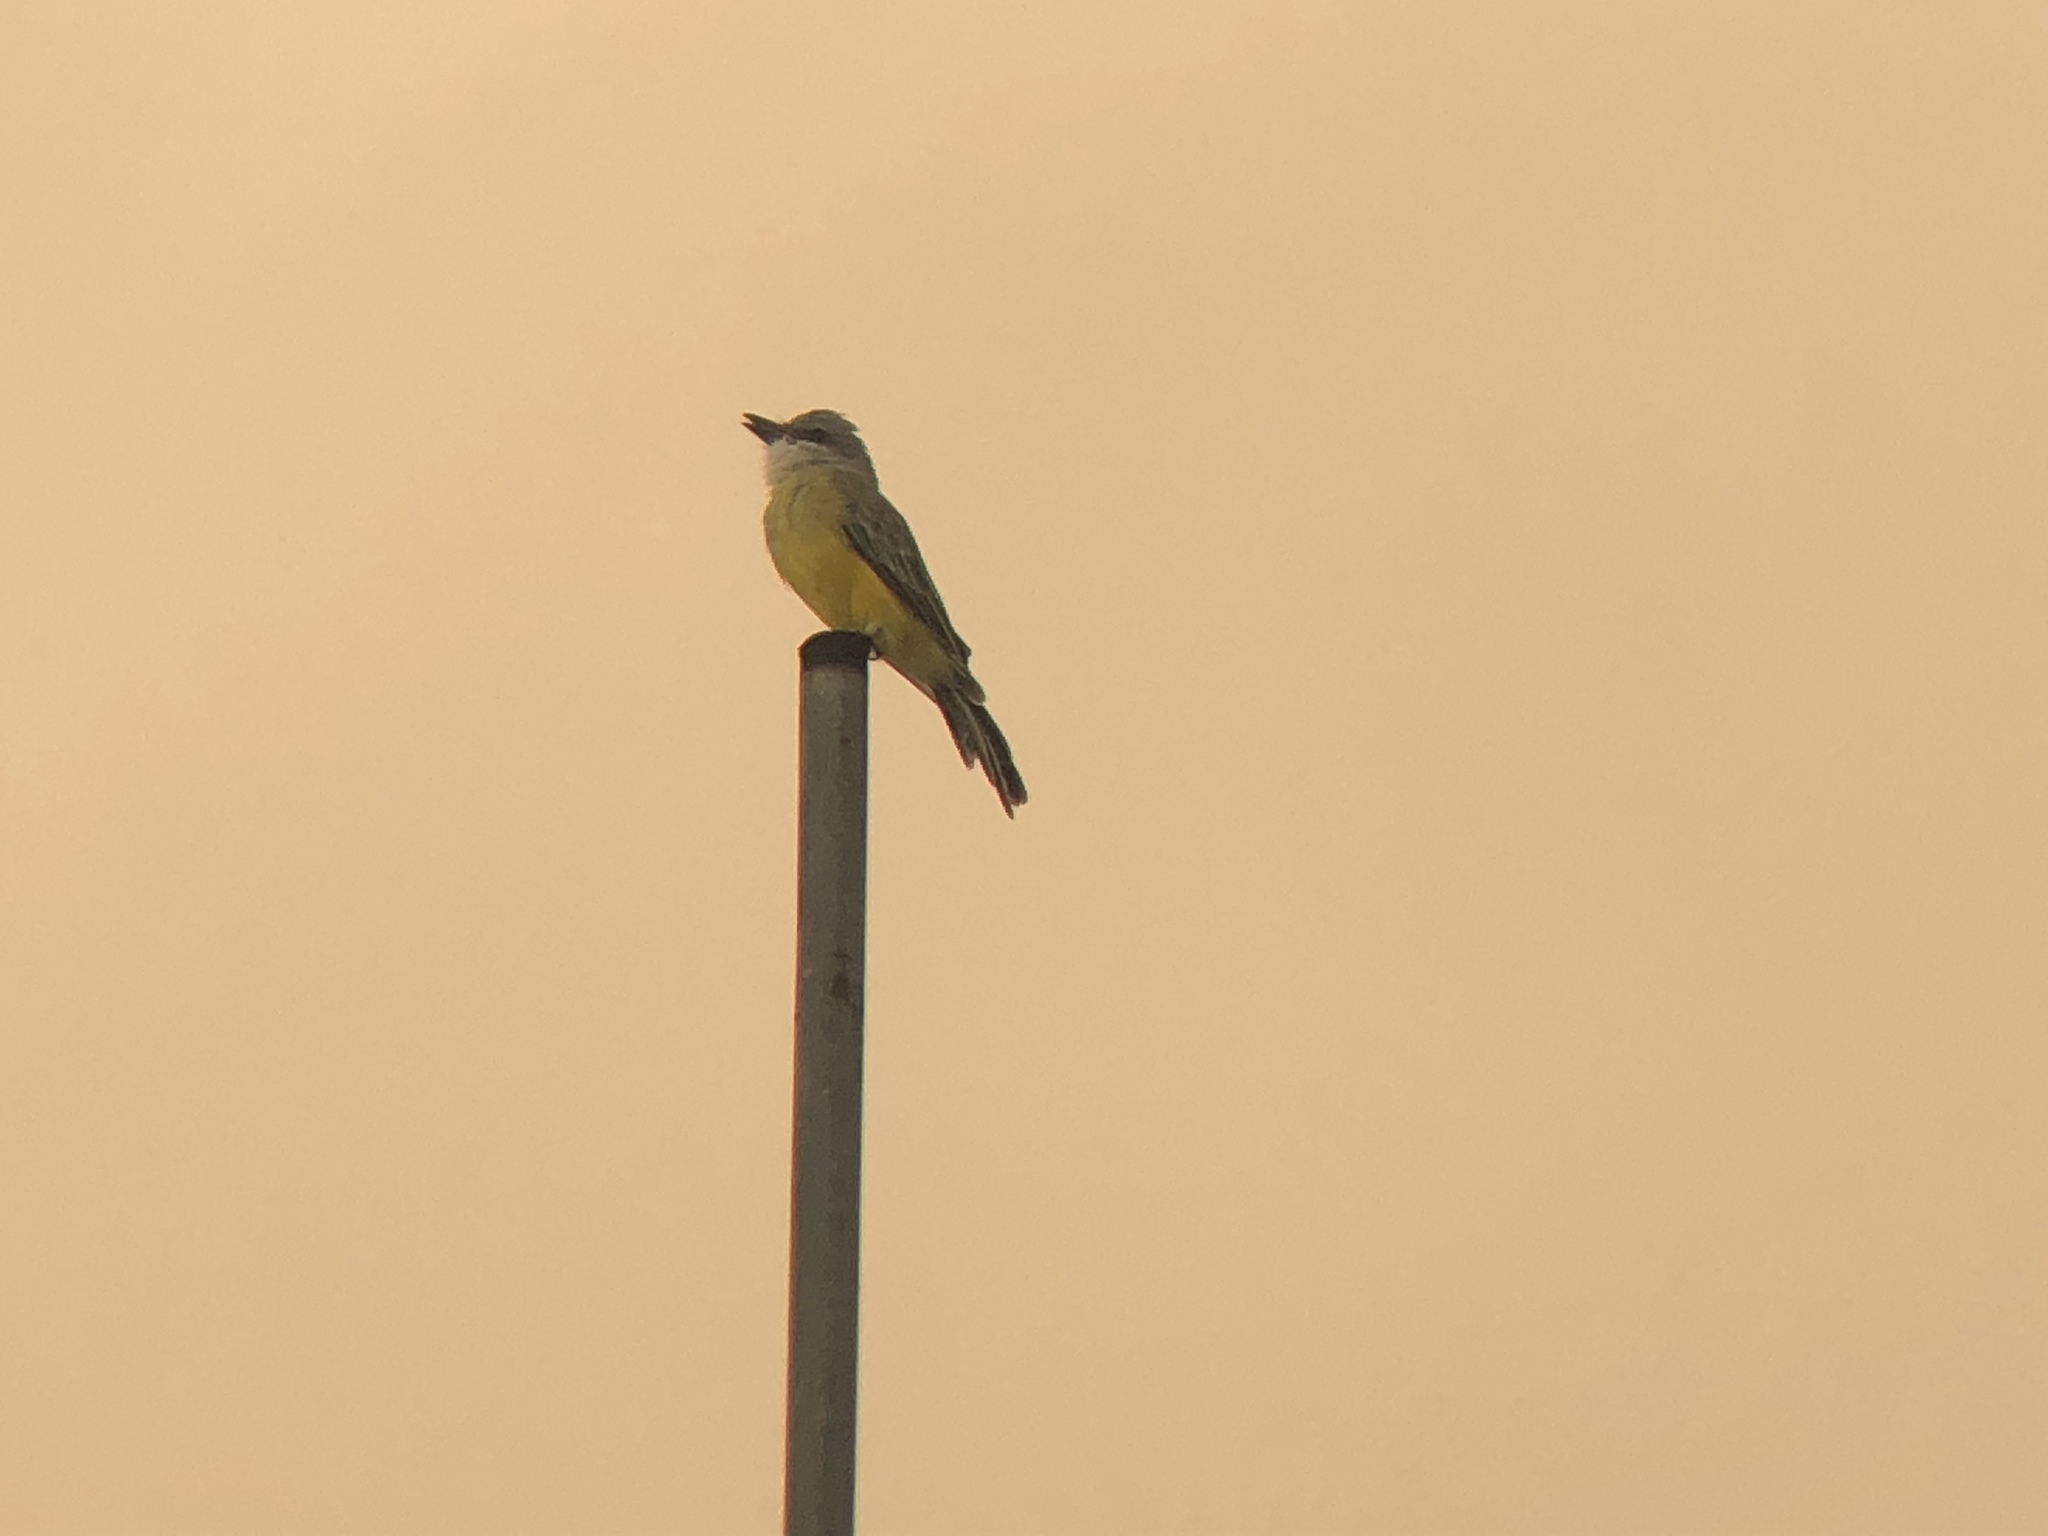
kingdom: Animalia
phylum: Chordata
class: Aves
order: Passeriformes
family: Tyrannidae
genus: Tyrannus
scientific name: Tyrannus melancholicus
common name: Tropical kingbird
